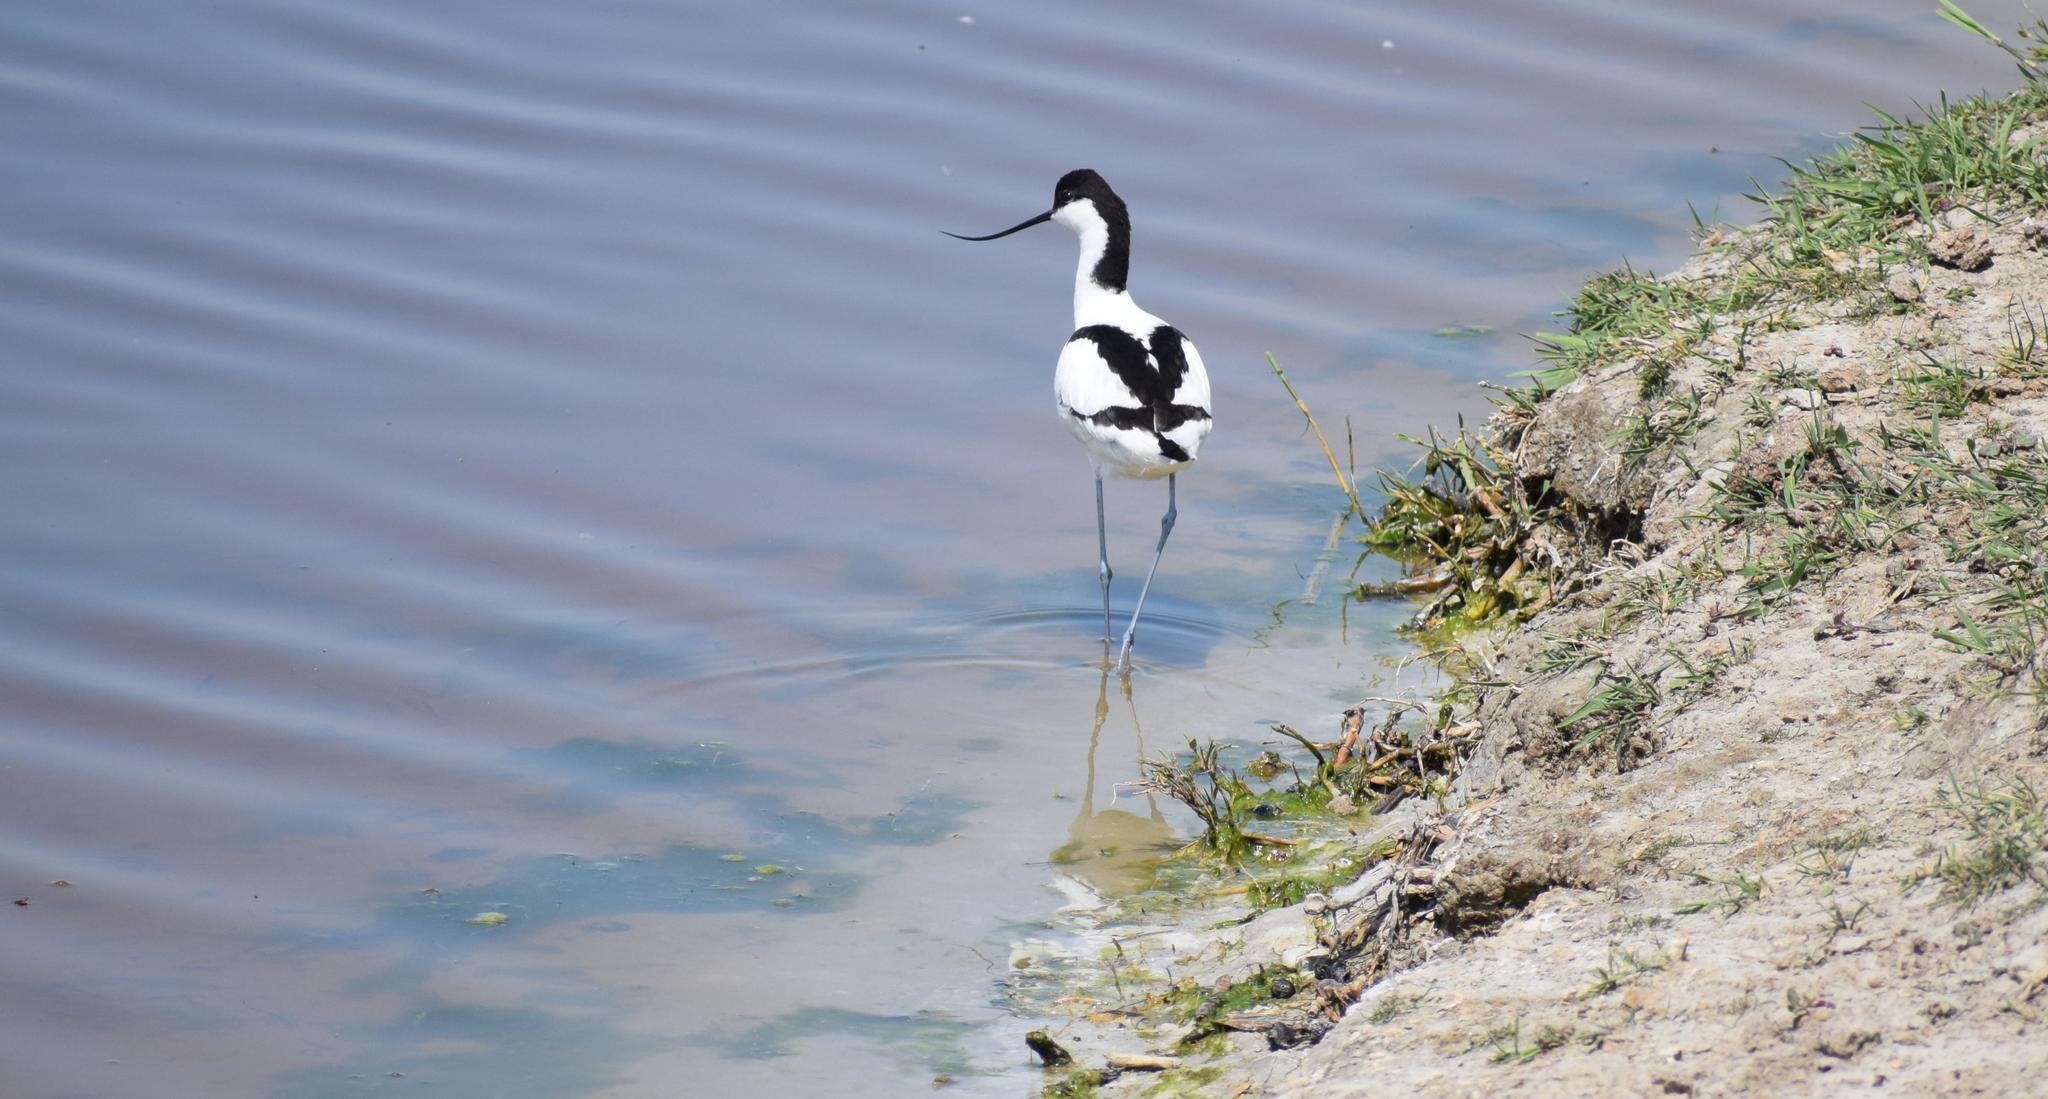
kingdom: Animalia
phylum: Chordata
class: Aves
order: Charadriiformes
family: Recurvirostridae
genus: Recurvirostra
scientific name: Recurvirostra avosetta
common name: Pied avocet
